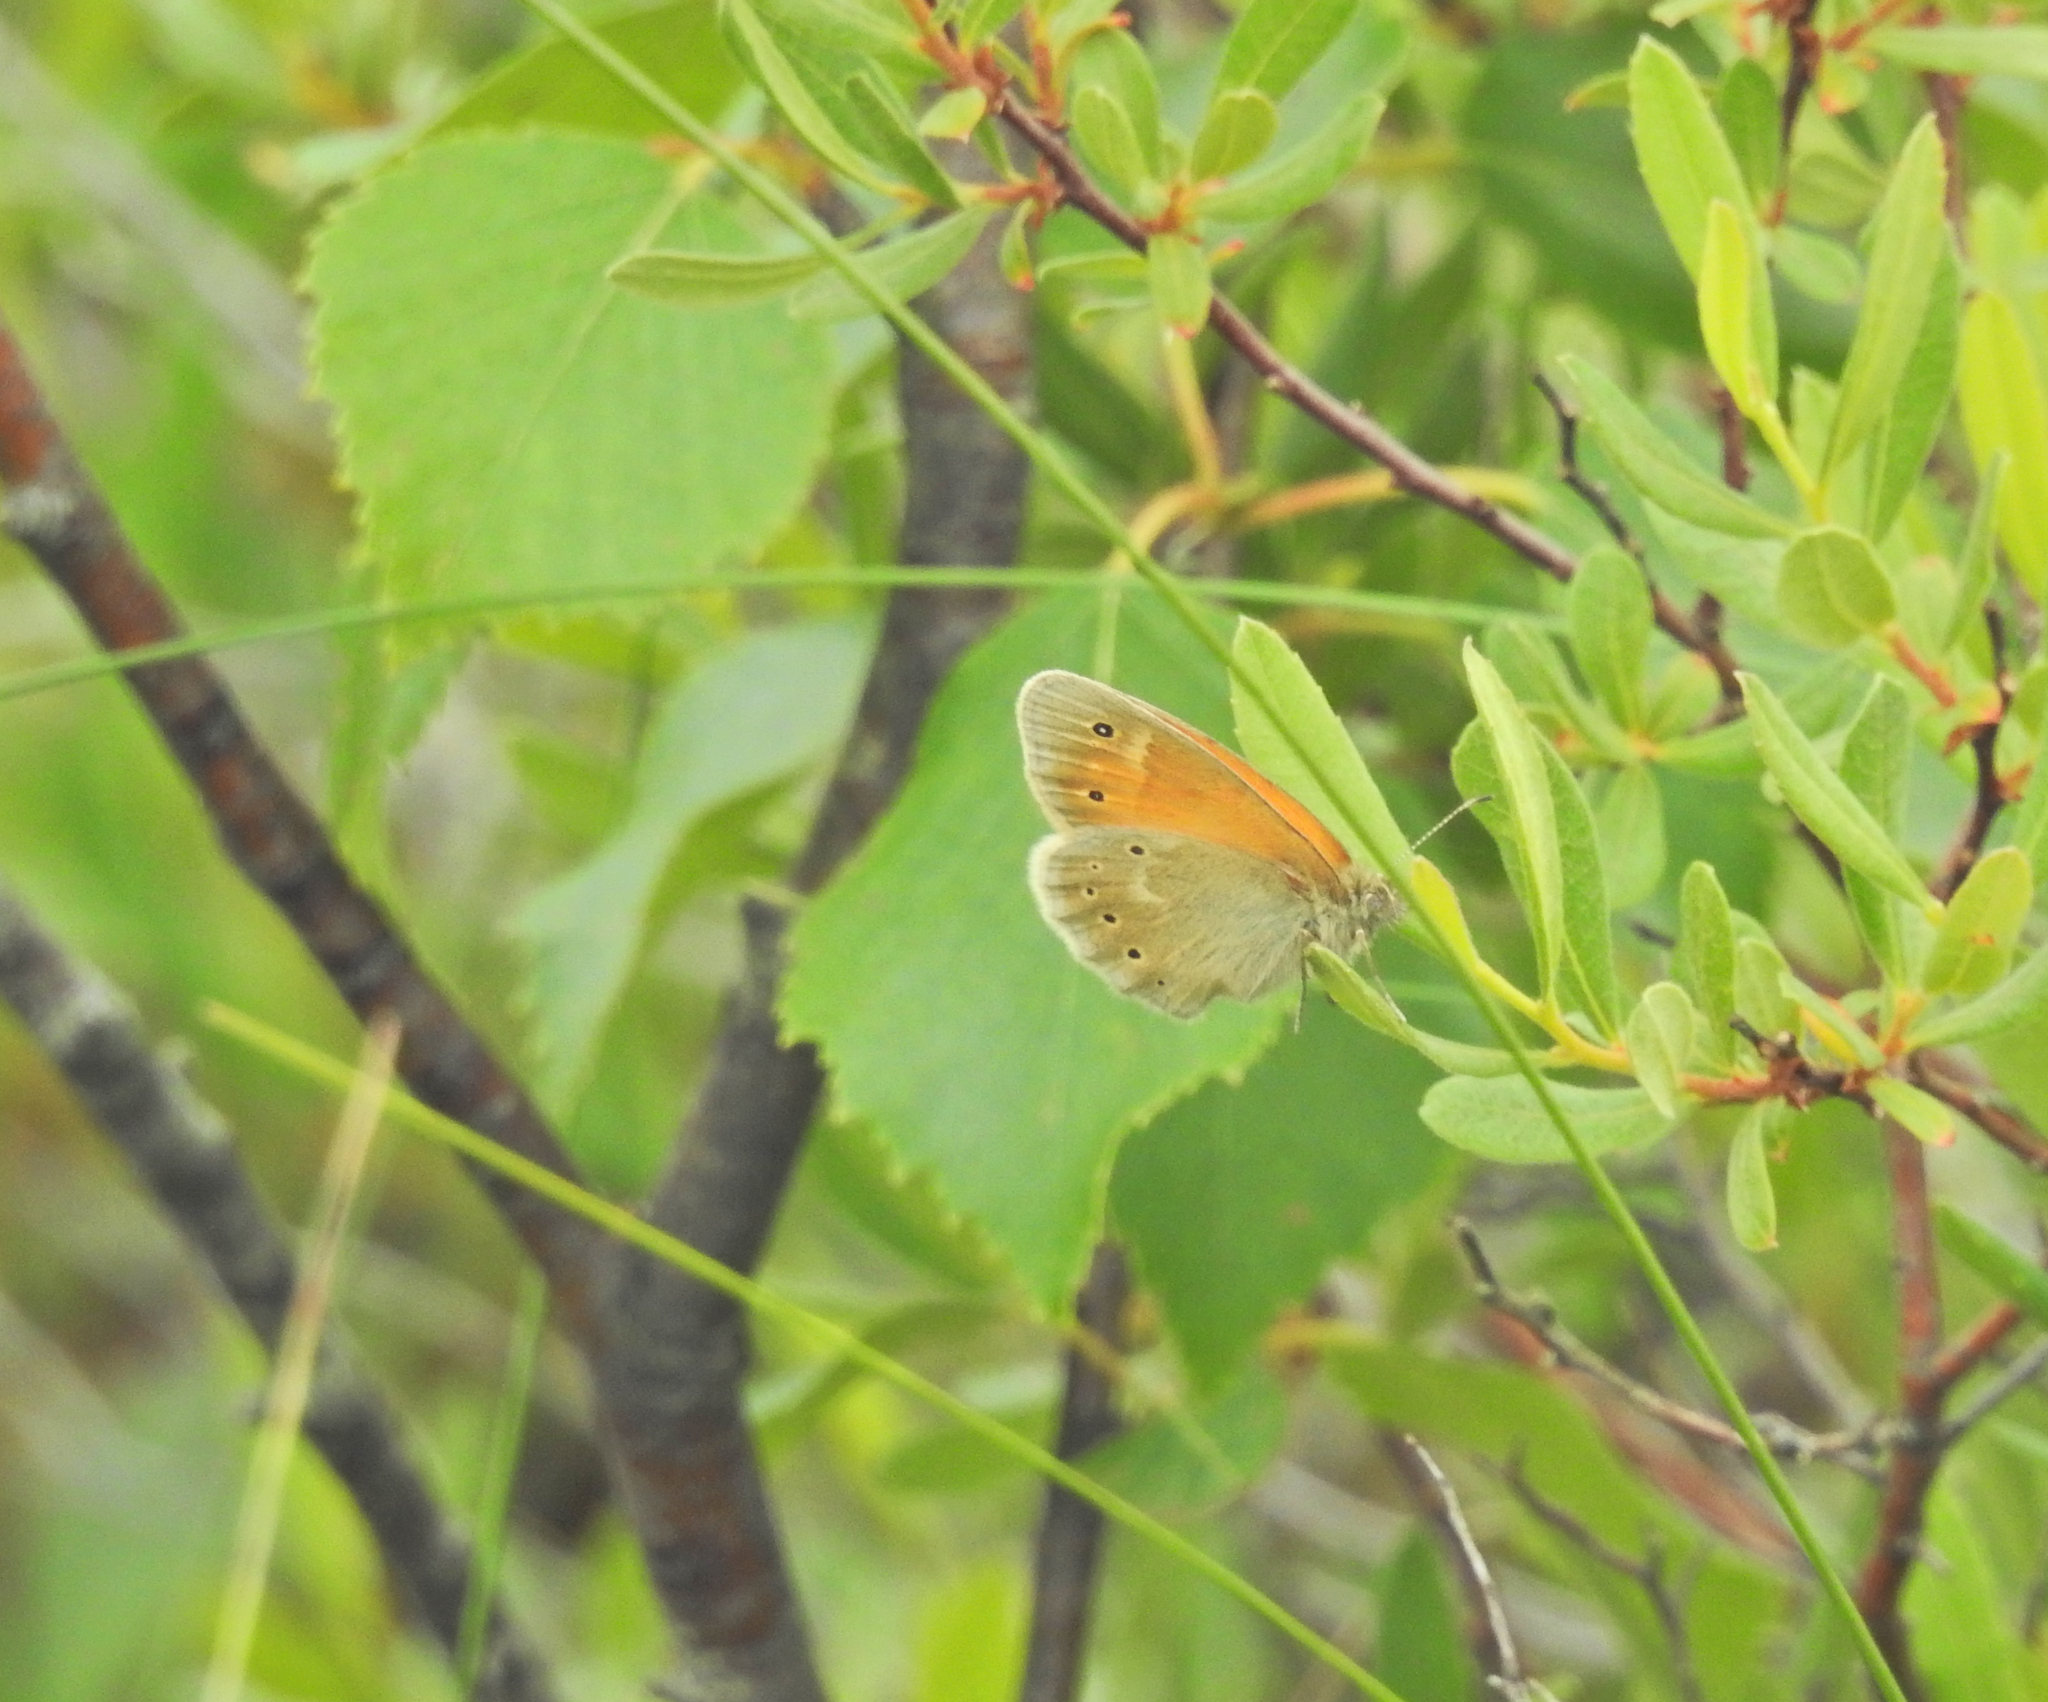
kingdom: Animalia
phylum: Arthropoda
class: Insecta
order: Lepidoptera
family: Nymphalidae
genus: Coenonympha
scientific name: Coenonympha tullia
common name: Large heath
